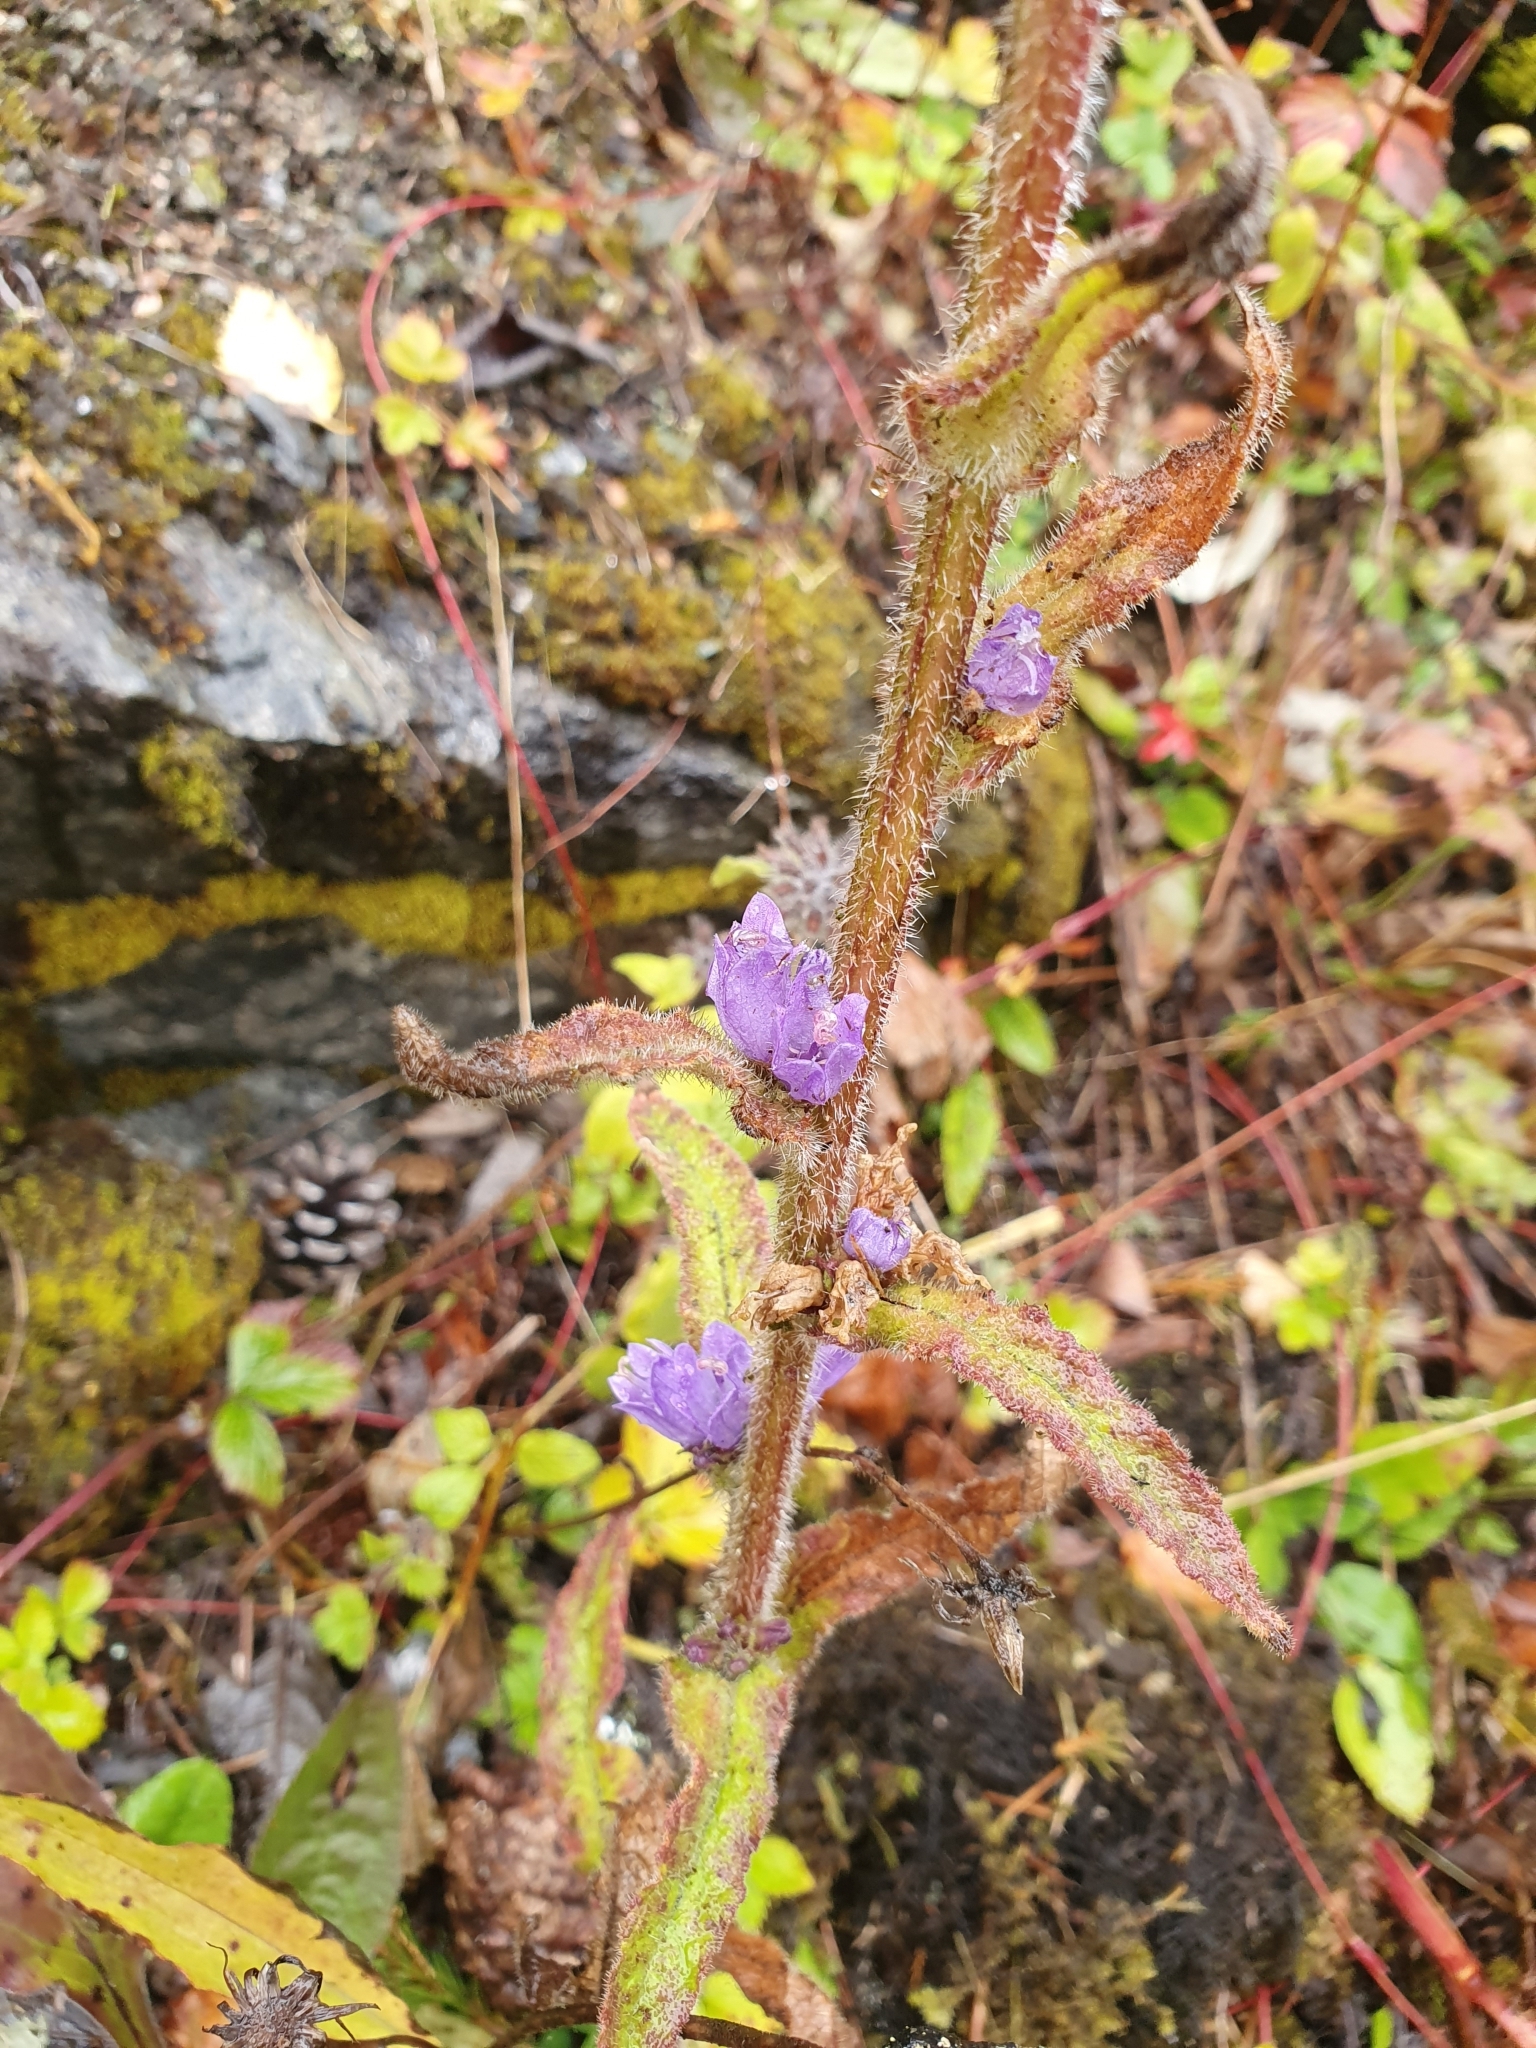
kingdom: Plantae
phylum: Tracheophyta
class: Magnoliopsida
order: Asterales
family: Campanulaceae
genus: Campanula
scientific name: Campanula cervicaria
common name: Bristly bellflower
